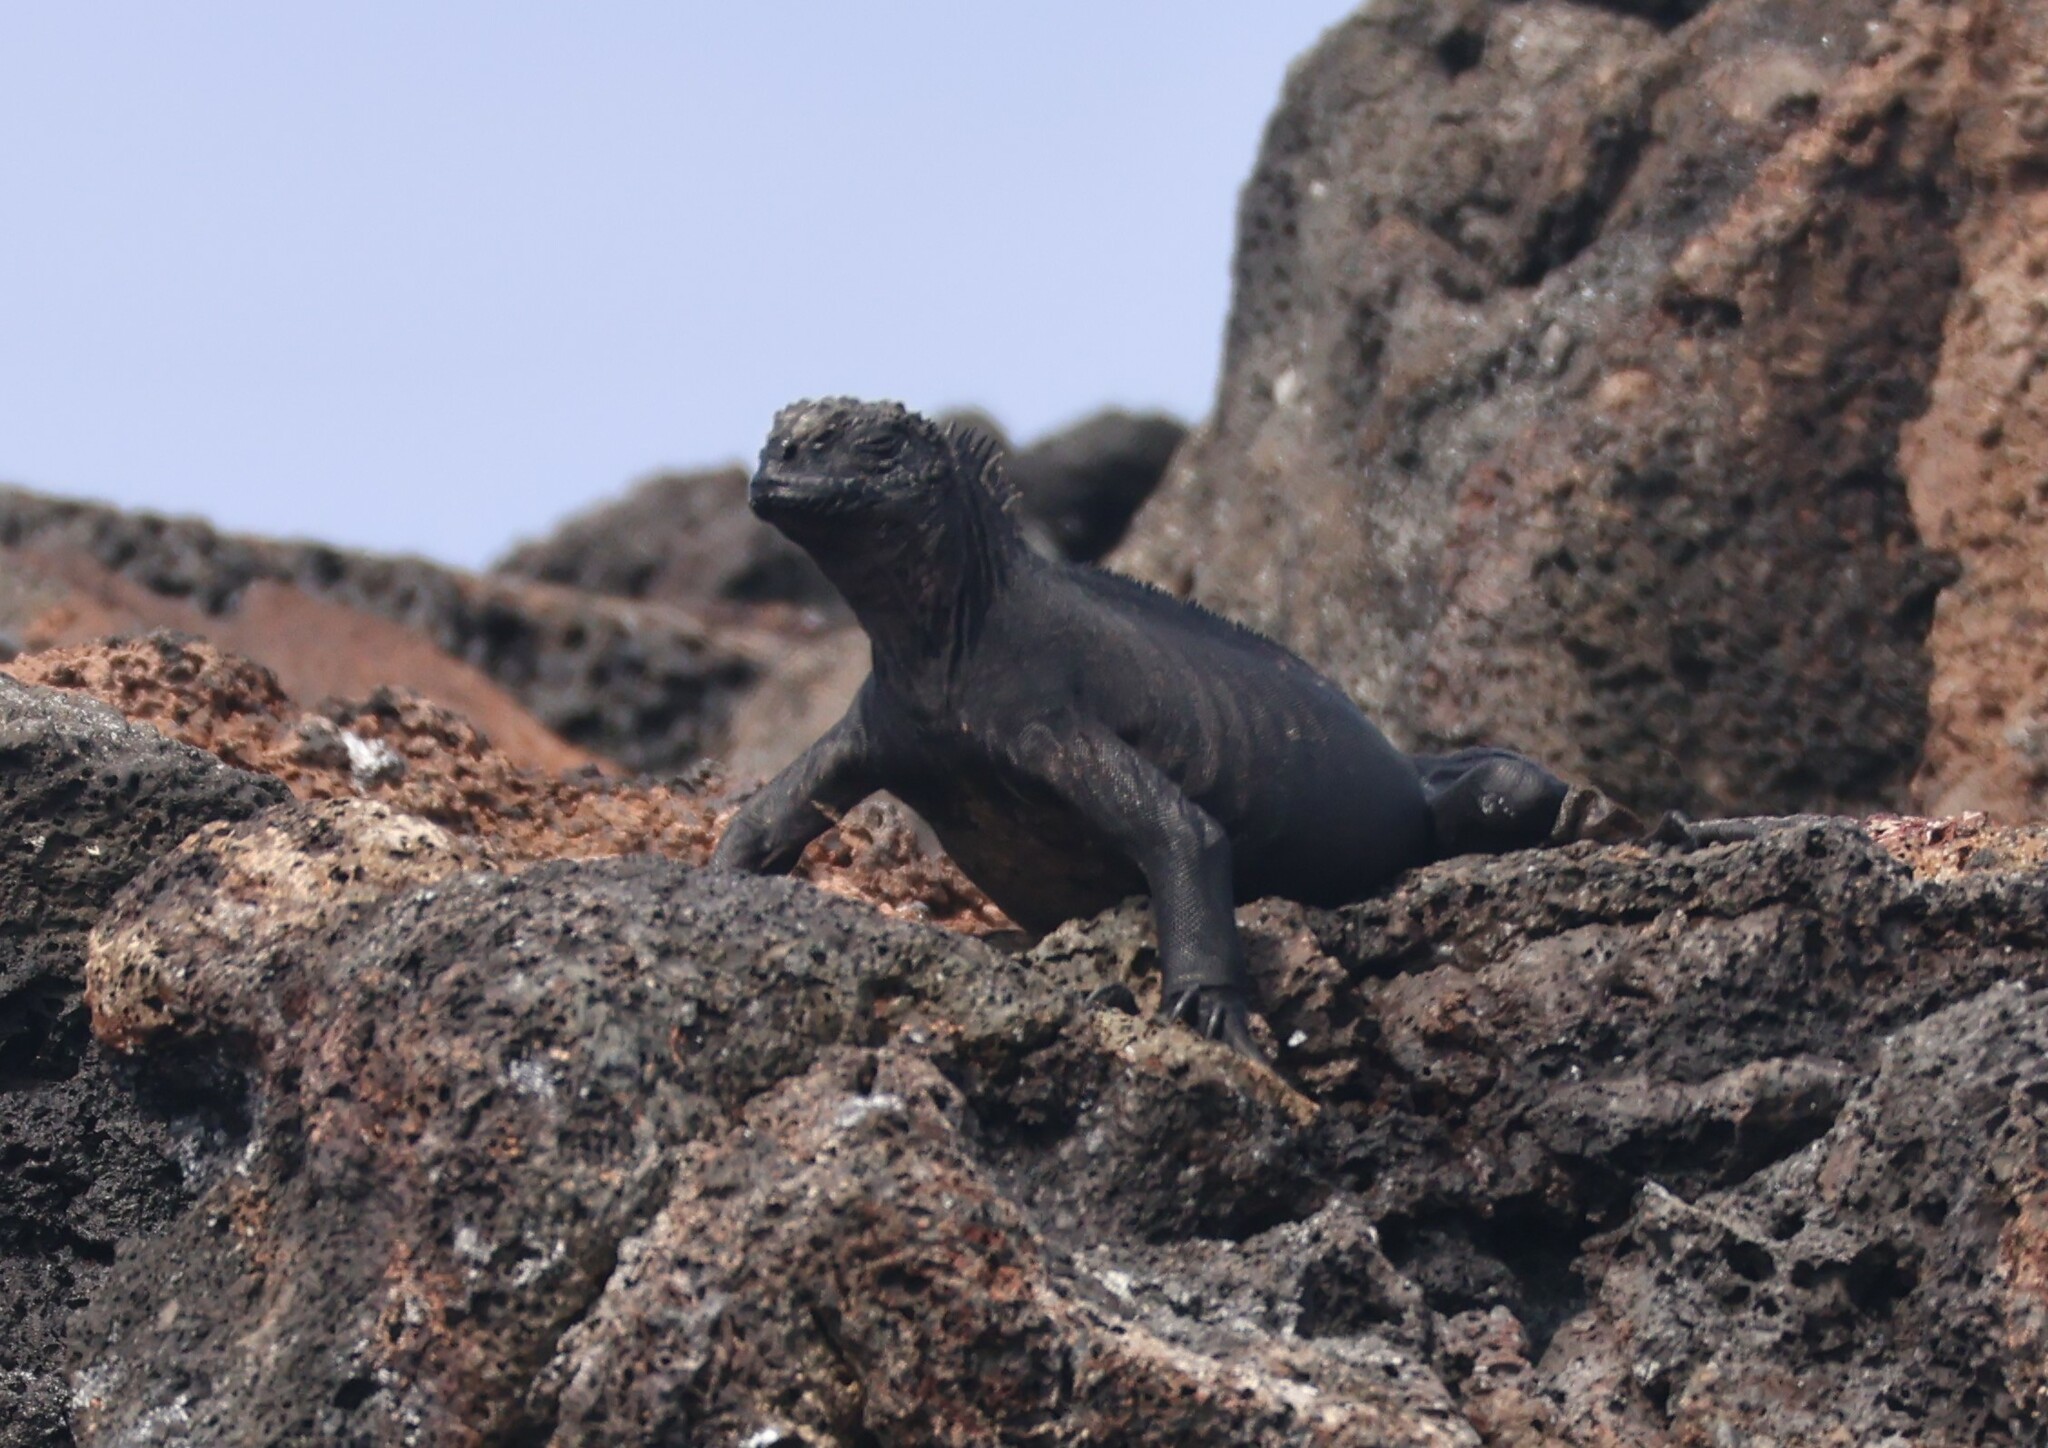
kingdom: Animalia
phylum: Chordata
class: Squamata
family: Iguanidae
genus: Amblyrhynchus
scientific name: Amblyrhynchus cristatus
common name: Marine iguana
